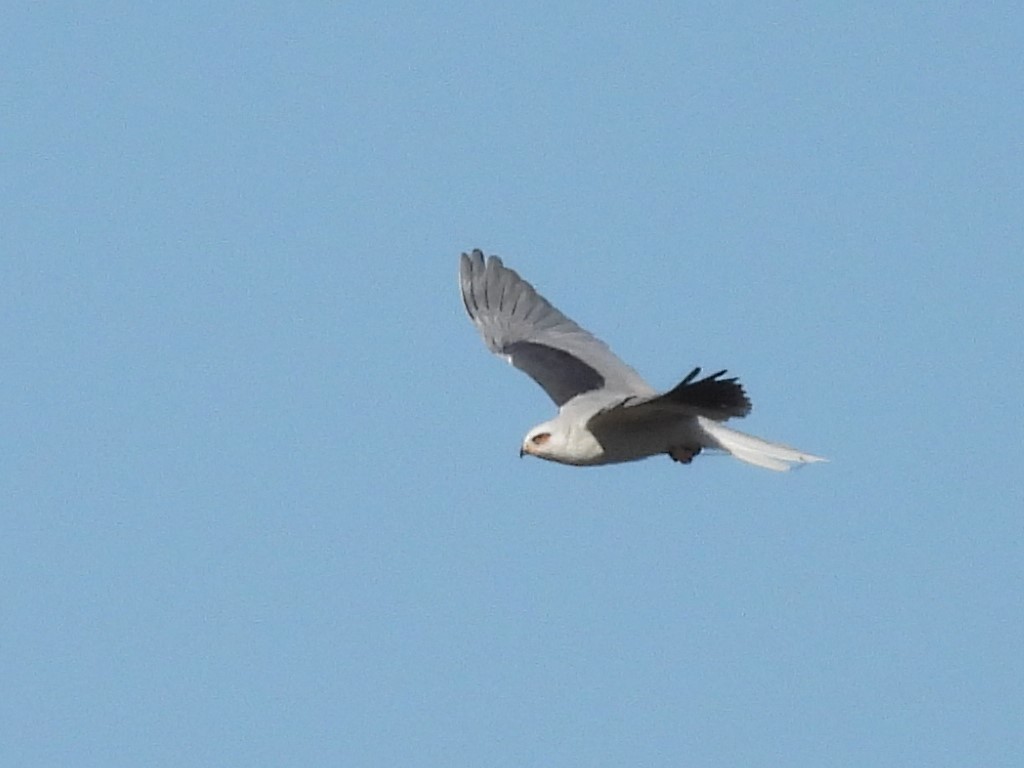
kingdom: Animalia
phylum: Chordata
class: Aves
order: Accipitriformes
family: Accipitridae
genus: Elanus
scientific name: Elanus leucurus
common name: White-tailed kite
